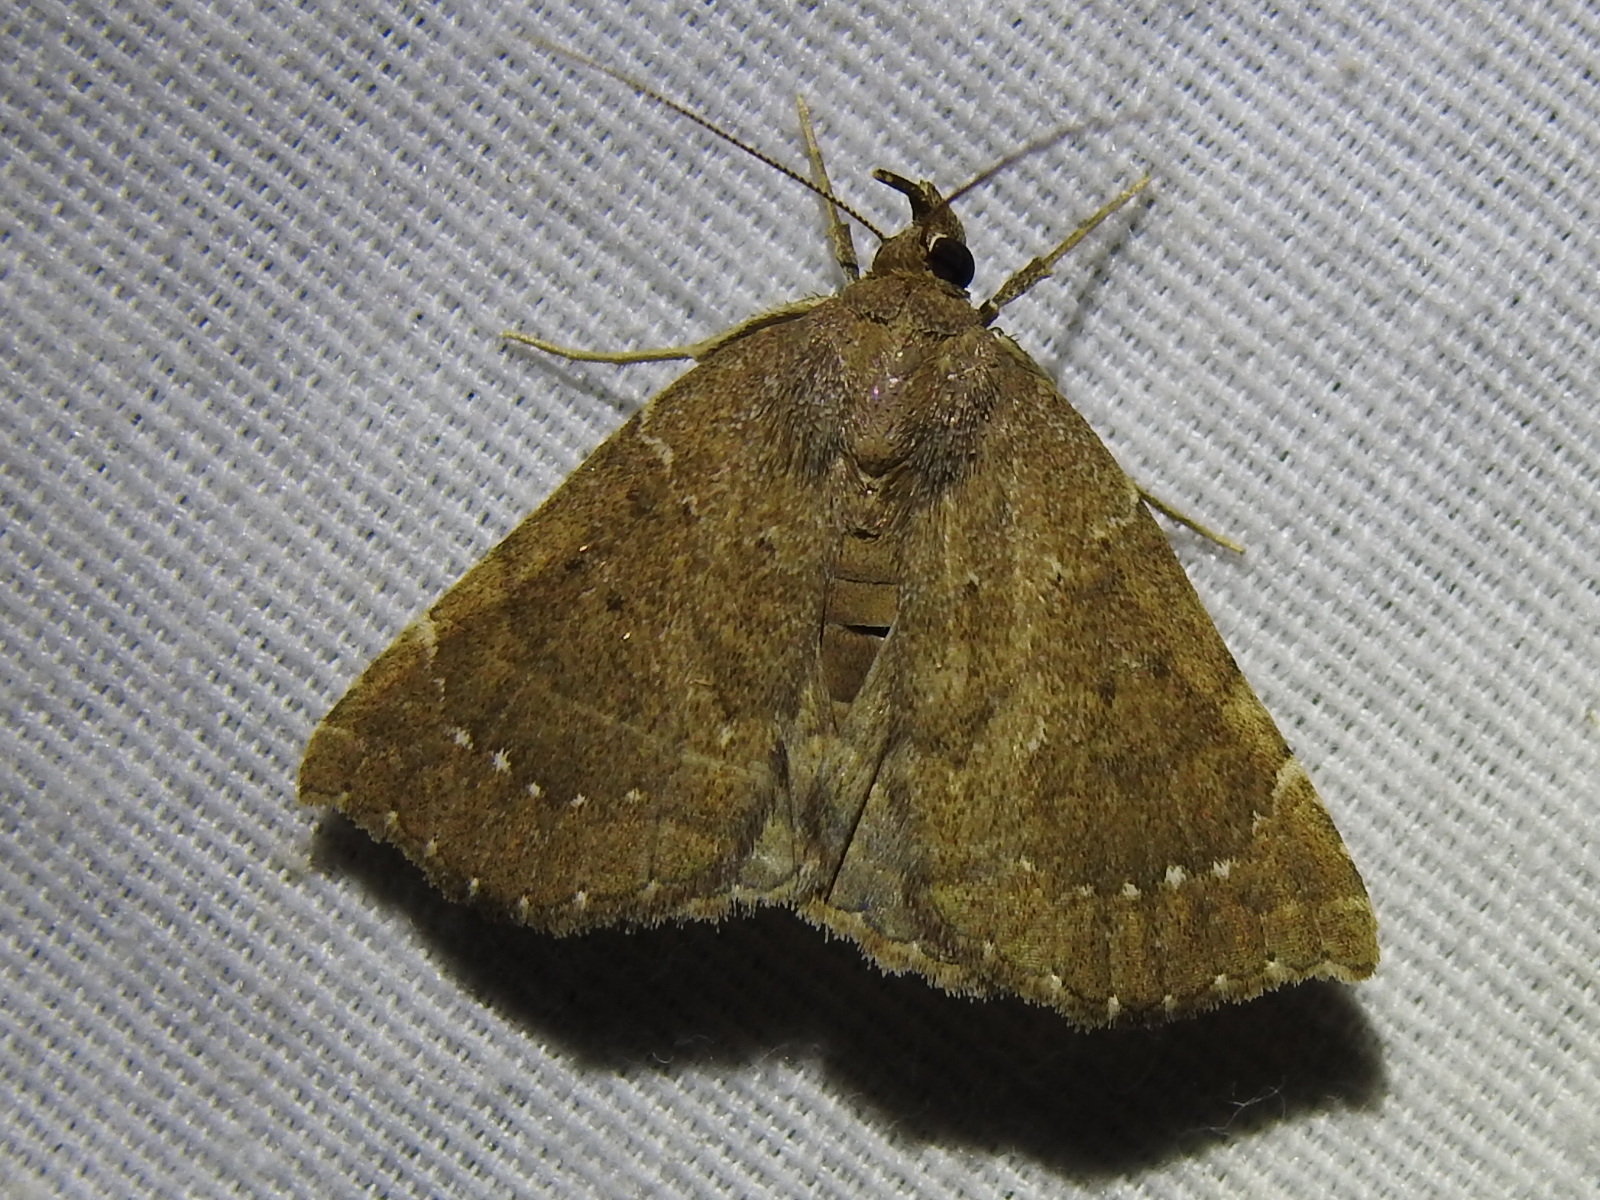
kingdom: Animalia
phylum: Arthropoda
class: Insecta
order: Lepidoptera
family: Erebidae
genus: Focillidia
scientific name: Focillidia texana
